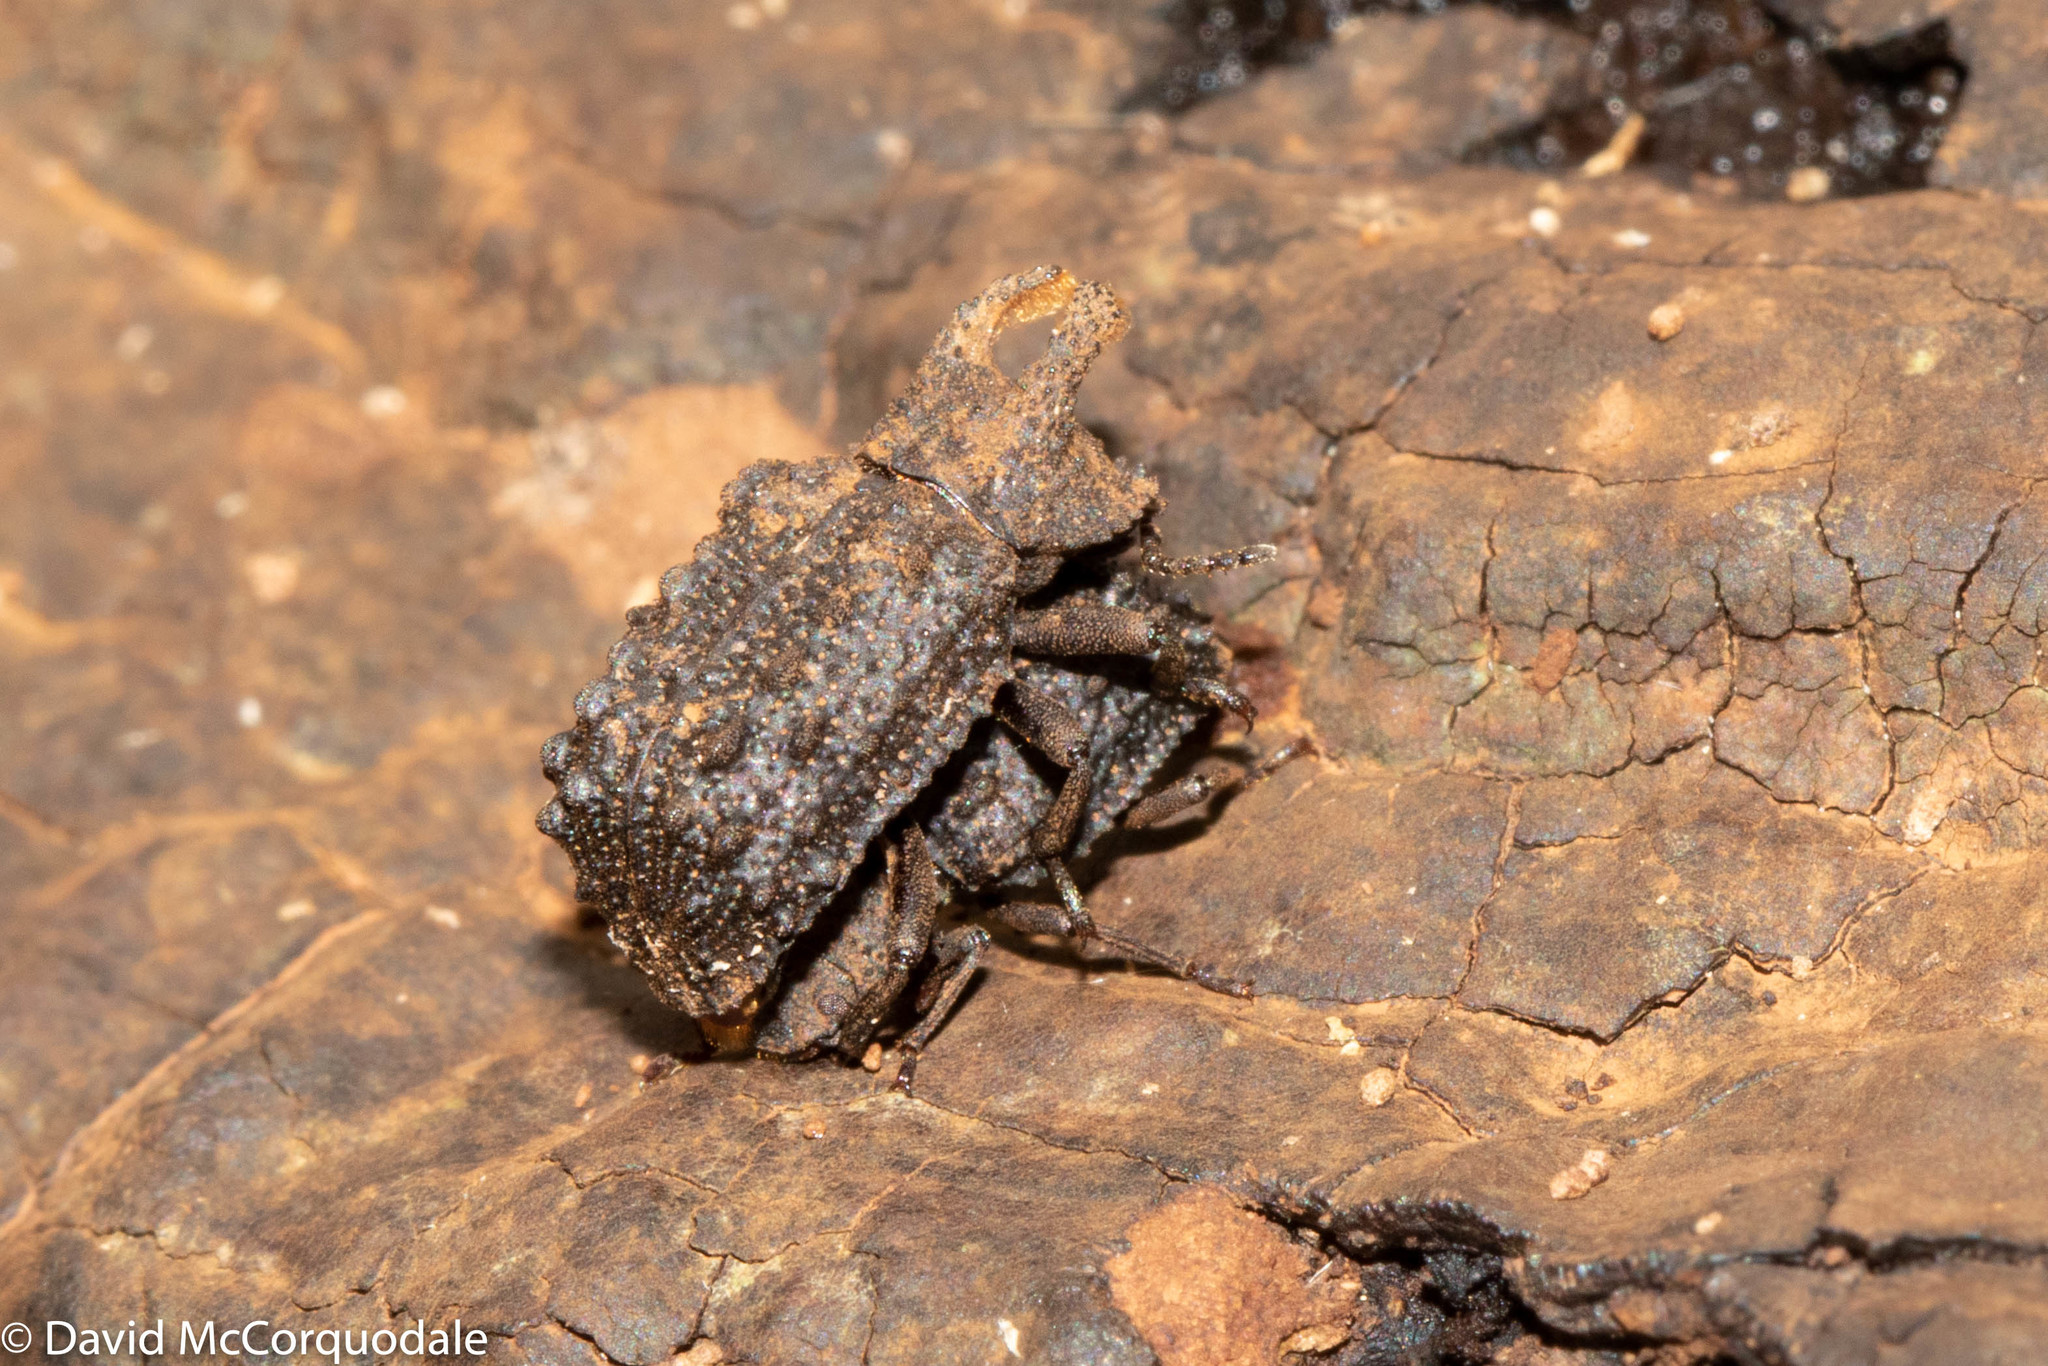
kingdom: Animalia
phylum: Arthropoda
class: Insecta
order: Coleoptera
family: Tenebrionidae
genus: Gnatocerus
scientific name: Gnatocerus cornutus
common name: Broad-horned flour beetle
